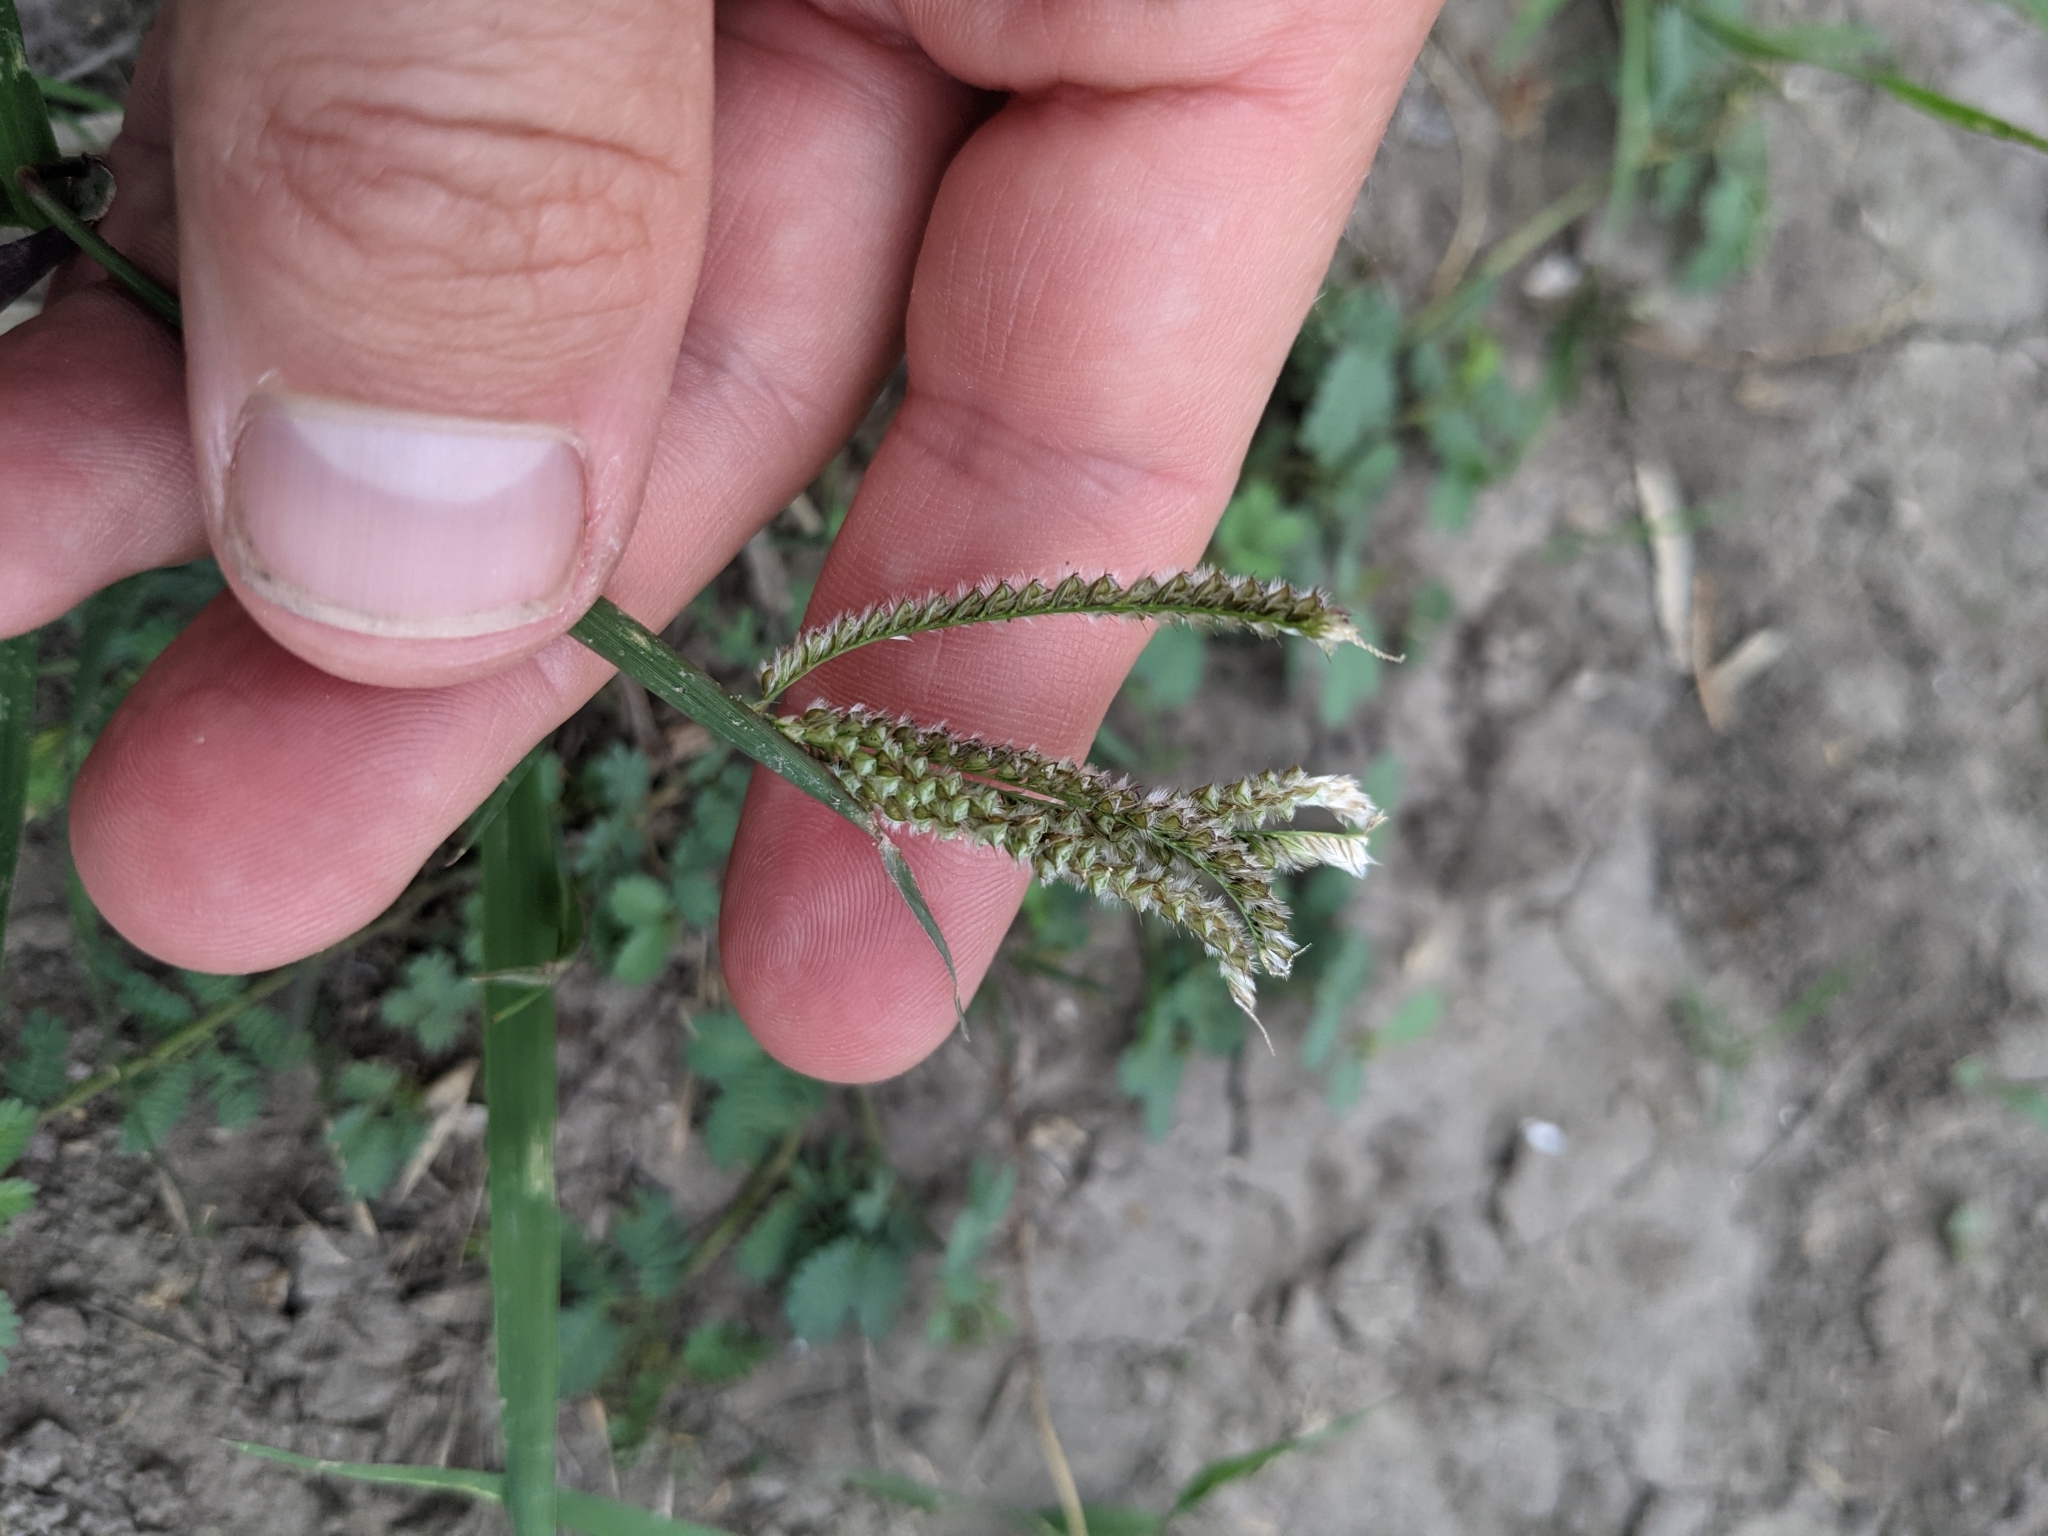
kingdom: Plantae
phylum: Tracheophyta
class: Liliopsida
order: Poales
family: Poaceae
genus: Stapfochloa
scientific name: Stapfochloa ciliata
